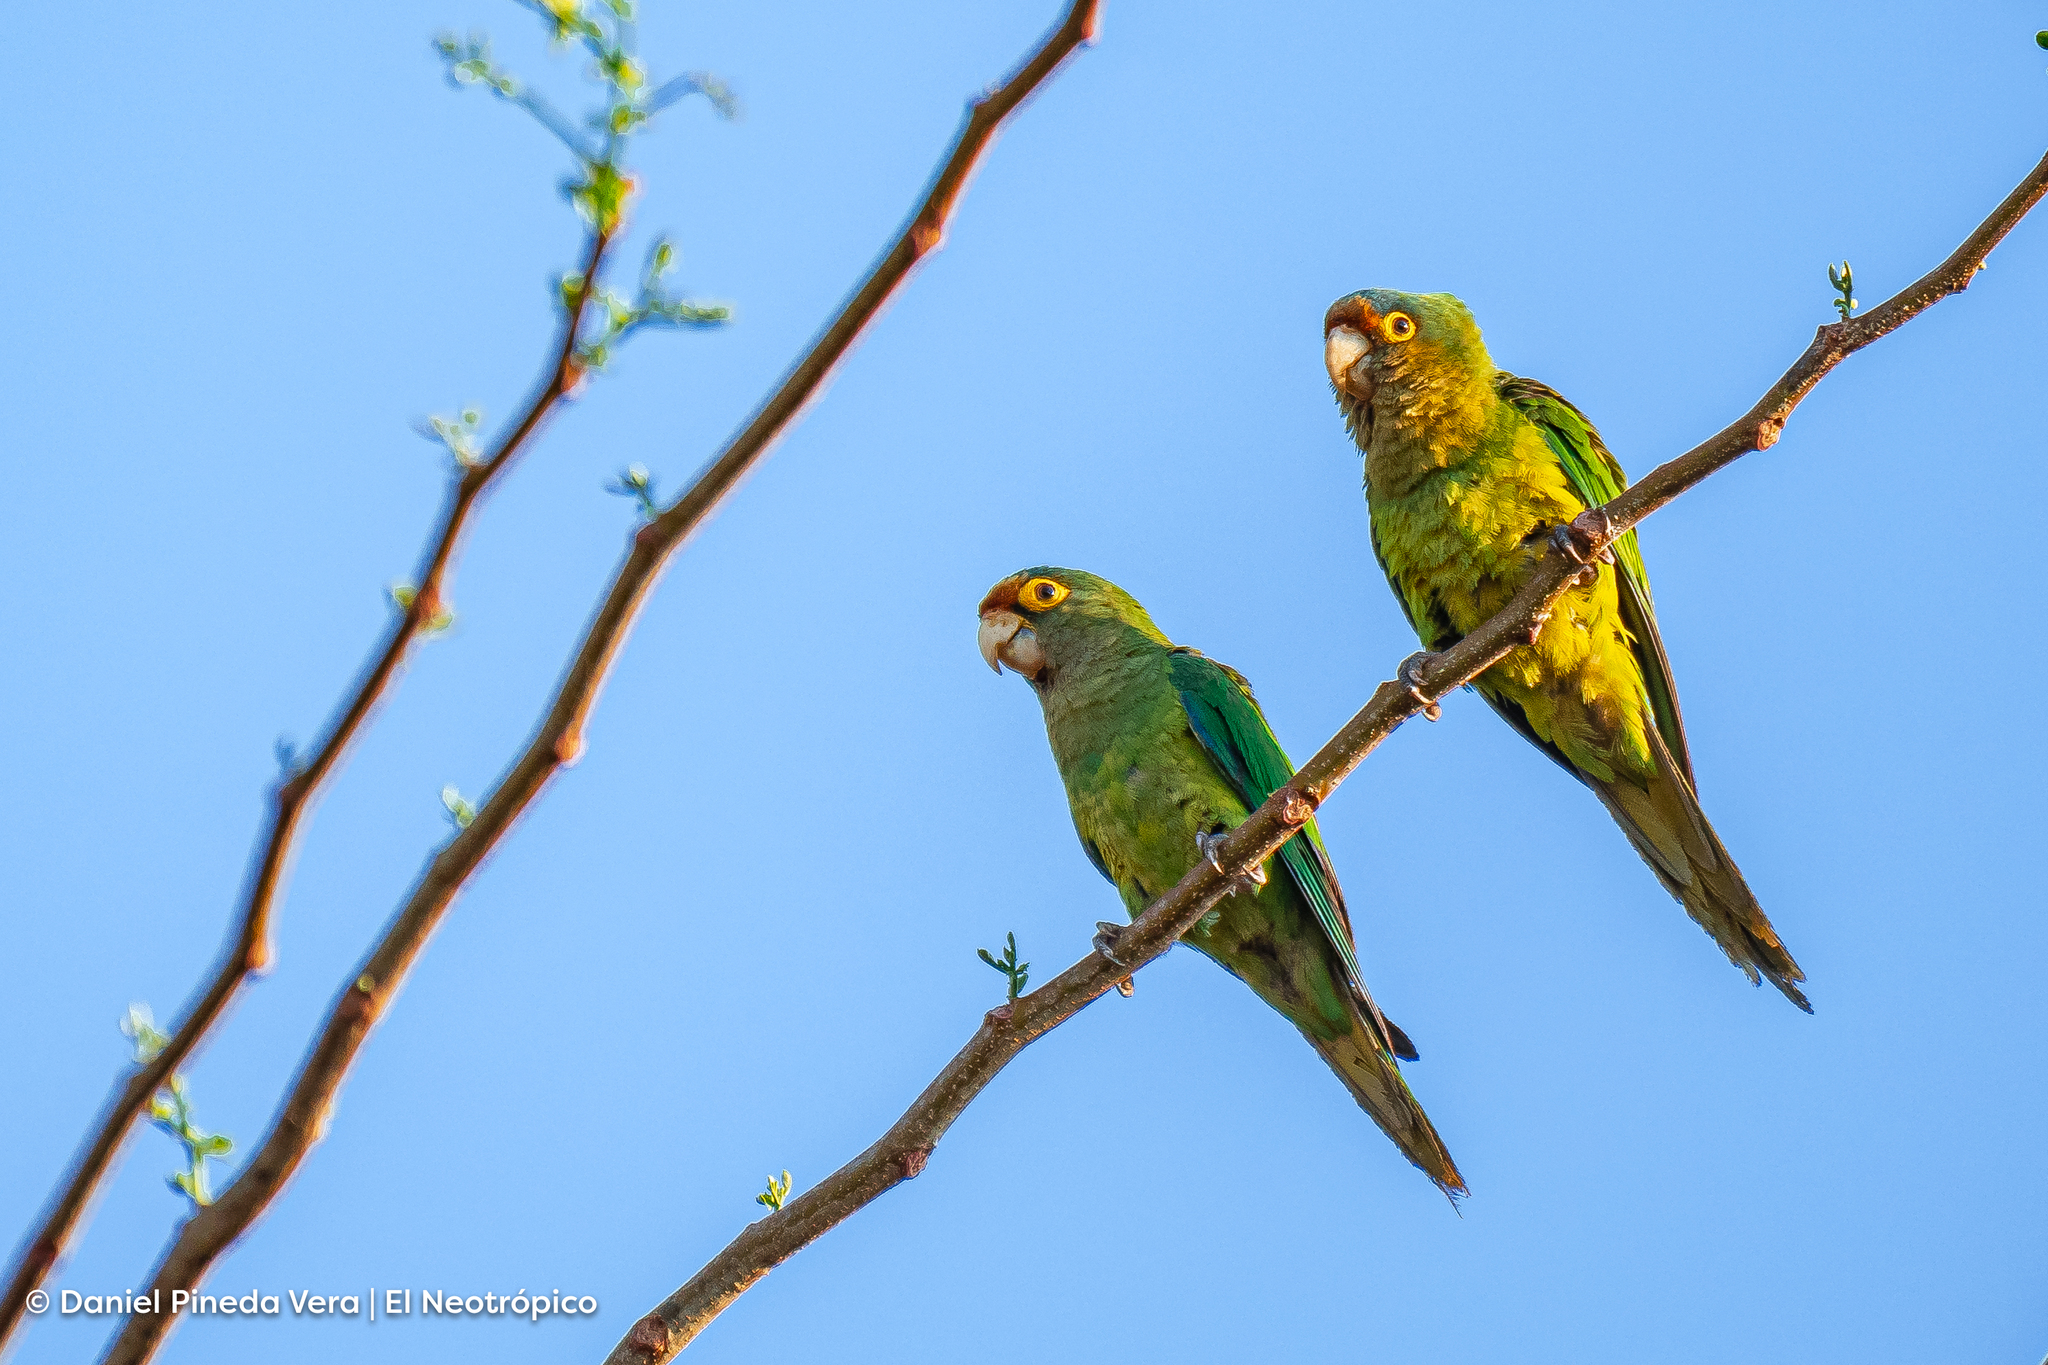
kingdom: Animalia
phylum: Chordata
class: Aves
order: Psittaciformes
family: Psittacidae
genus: Aratinga
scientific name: Aratinga canicularis
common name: Orange-fronted parakeet
